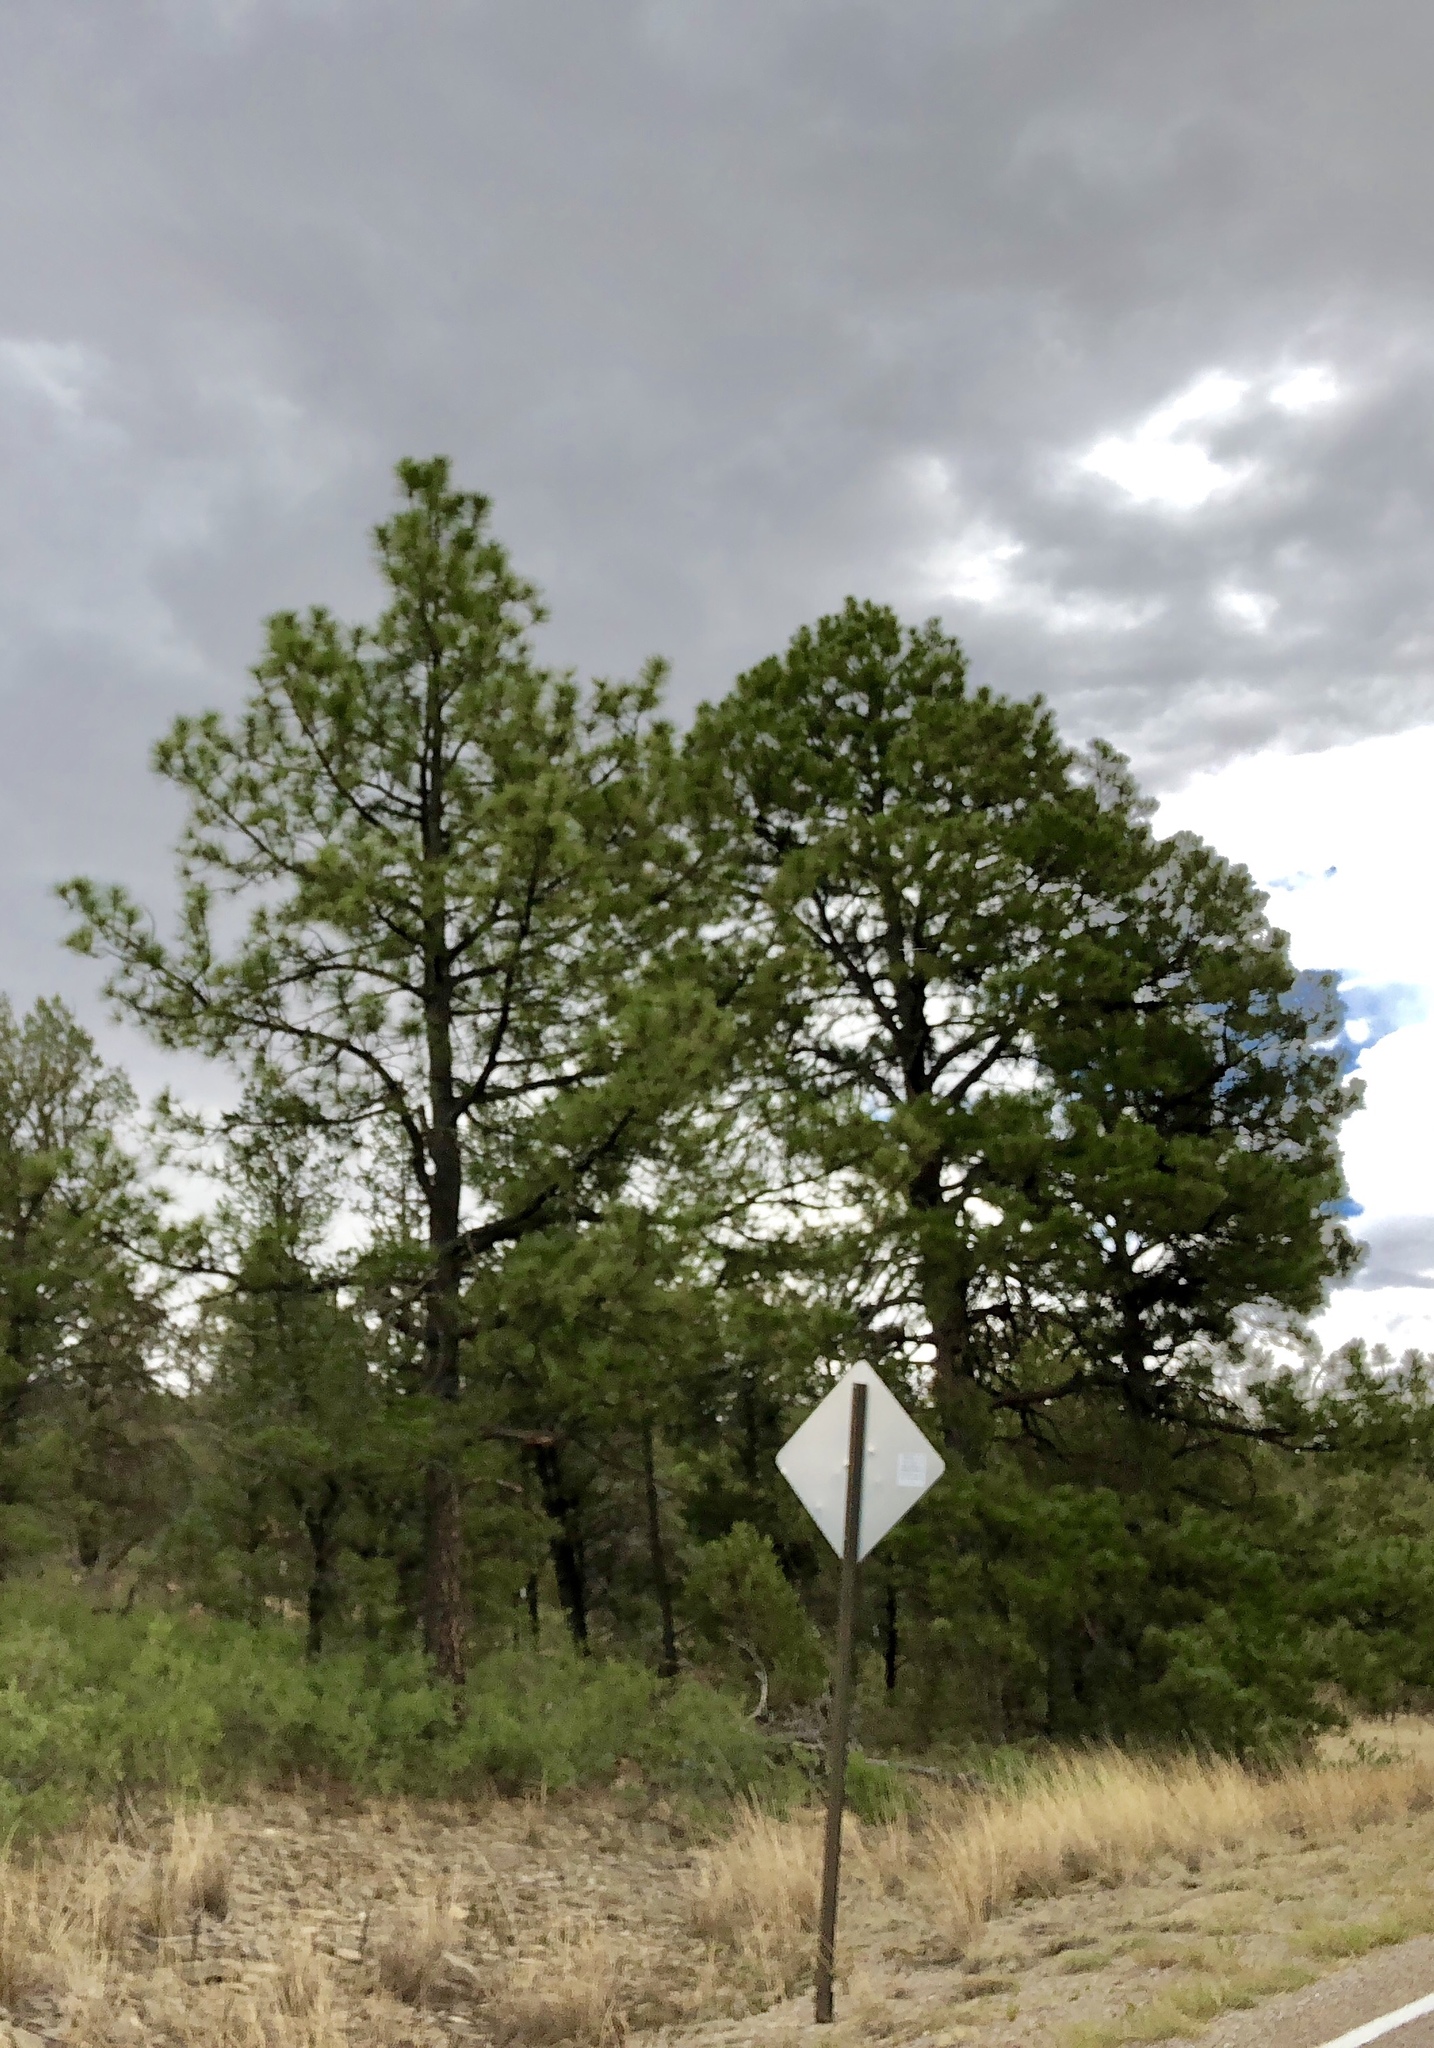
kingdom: Plantae
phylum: Tracheophyta
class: Pinopsida
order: Pinales
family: Pinaceae
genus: Pinus
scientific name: Pinus ponderosa
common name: Western yellow-pine
